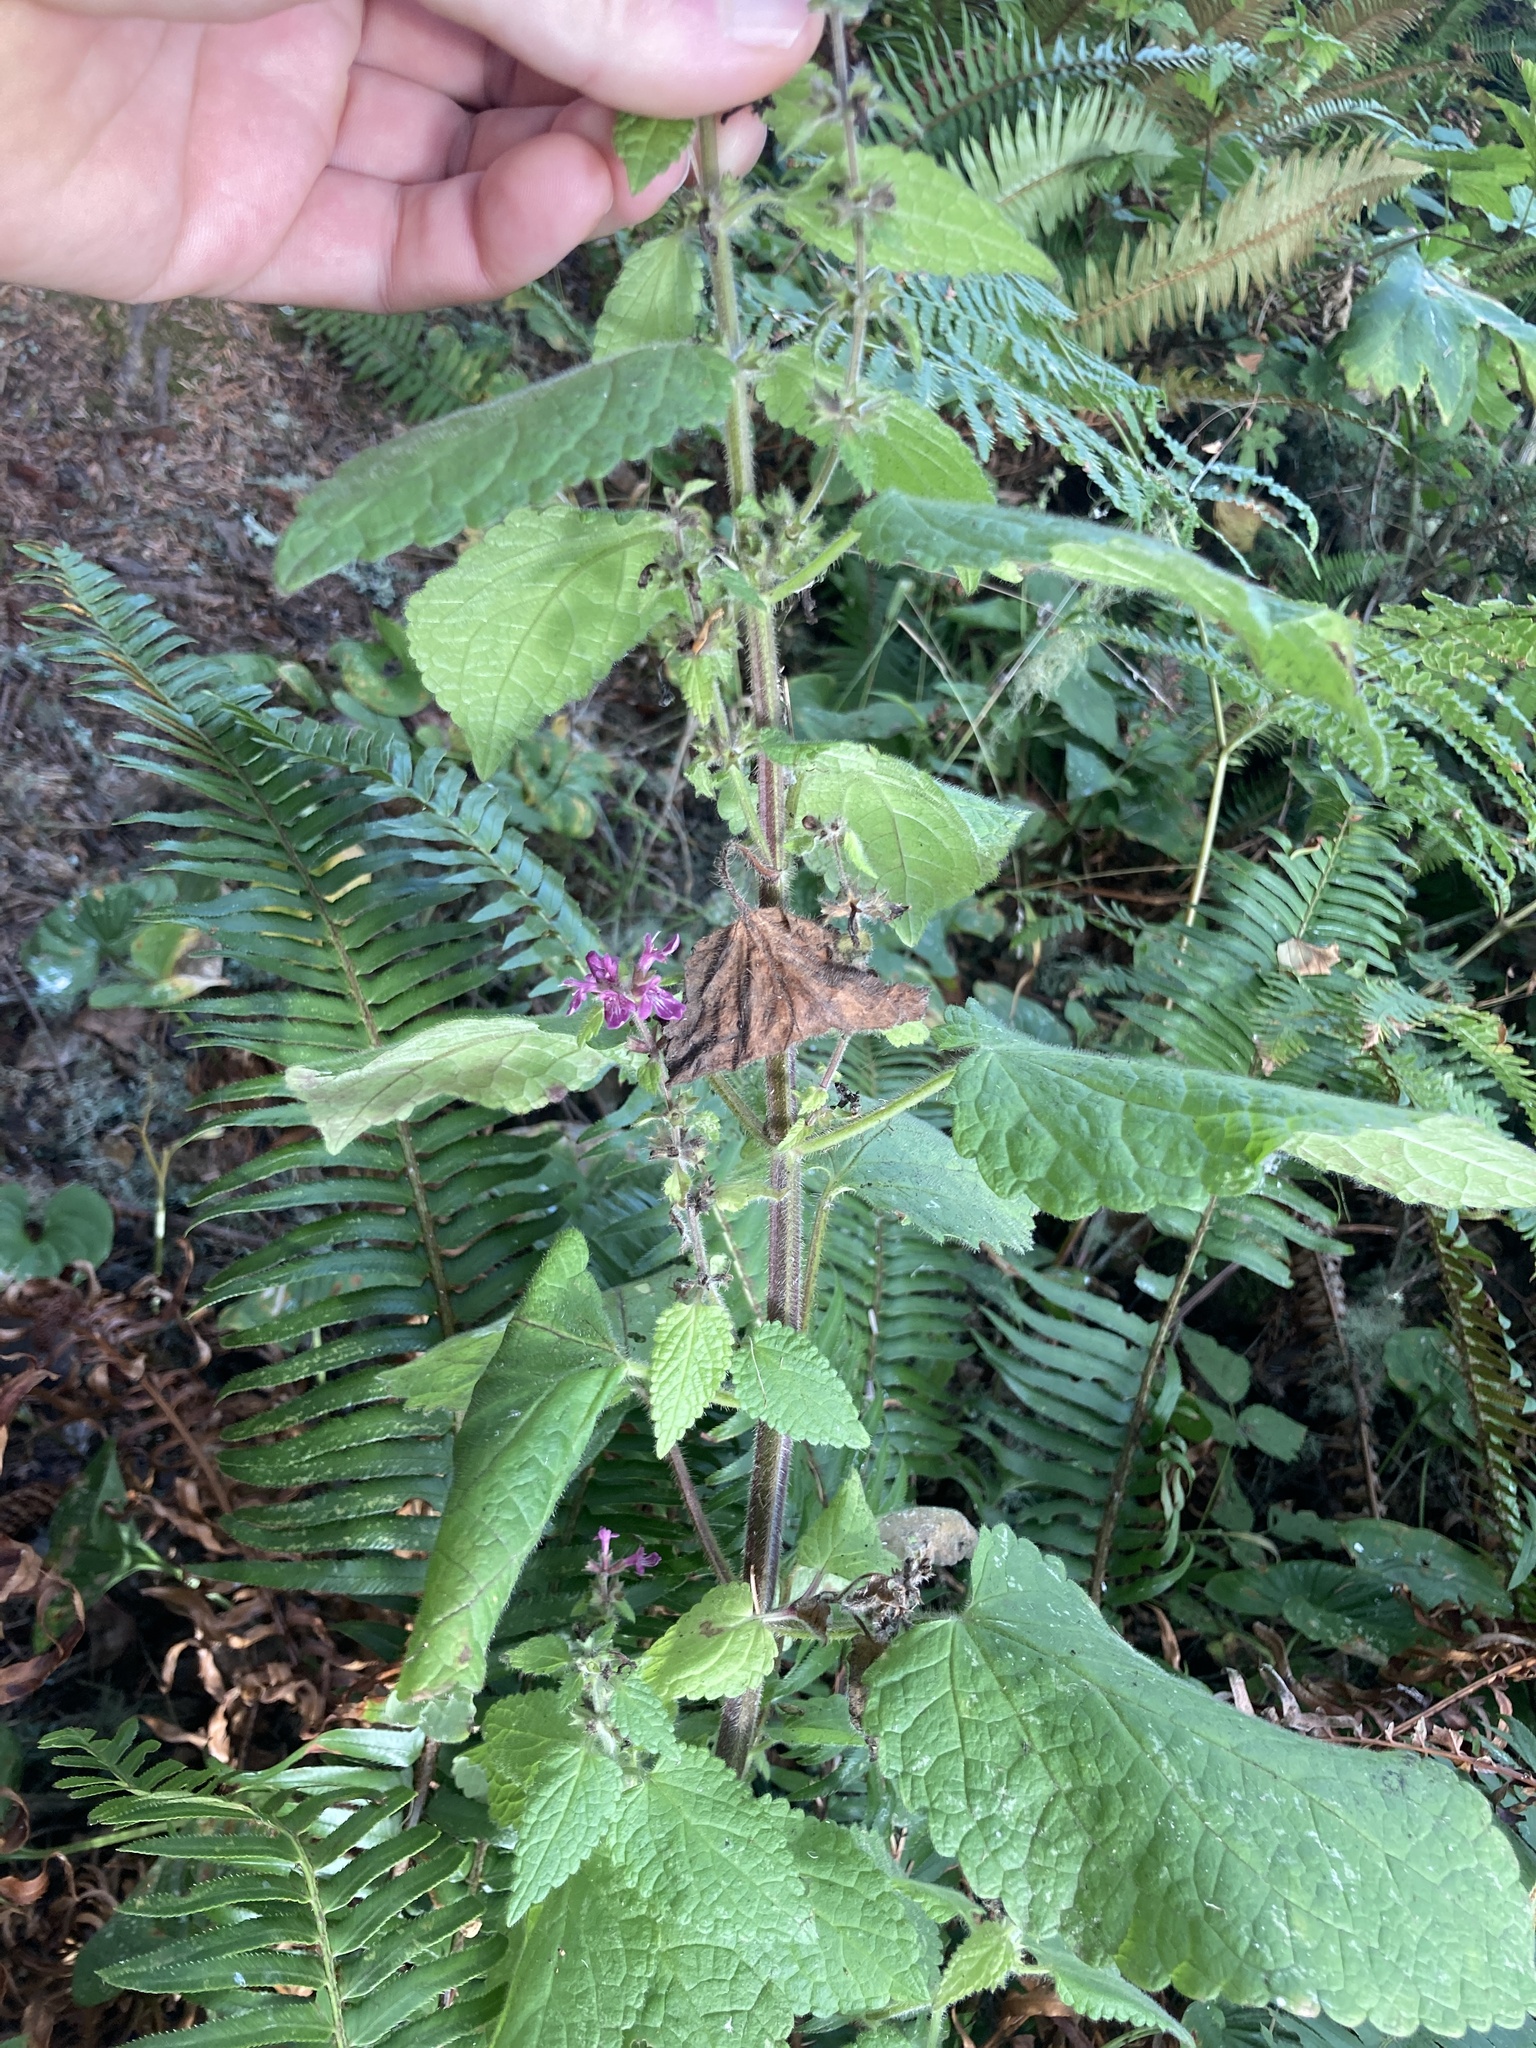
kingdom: Plantae
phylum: Tracheophyta
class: Magnoliopsida
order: Lamiales
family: Lamiaceae
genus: Stachys
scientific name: Stachys mexicana
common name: Mexican hedge-nettle
